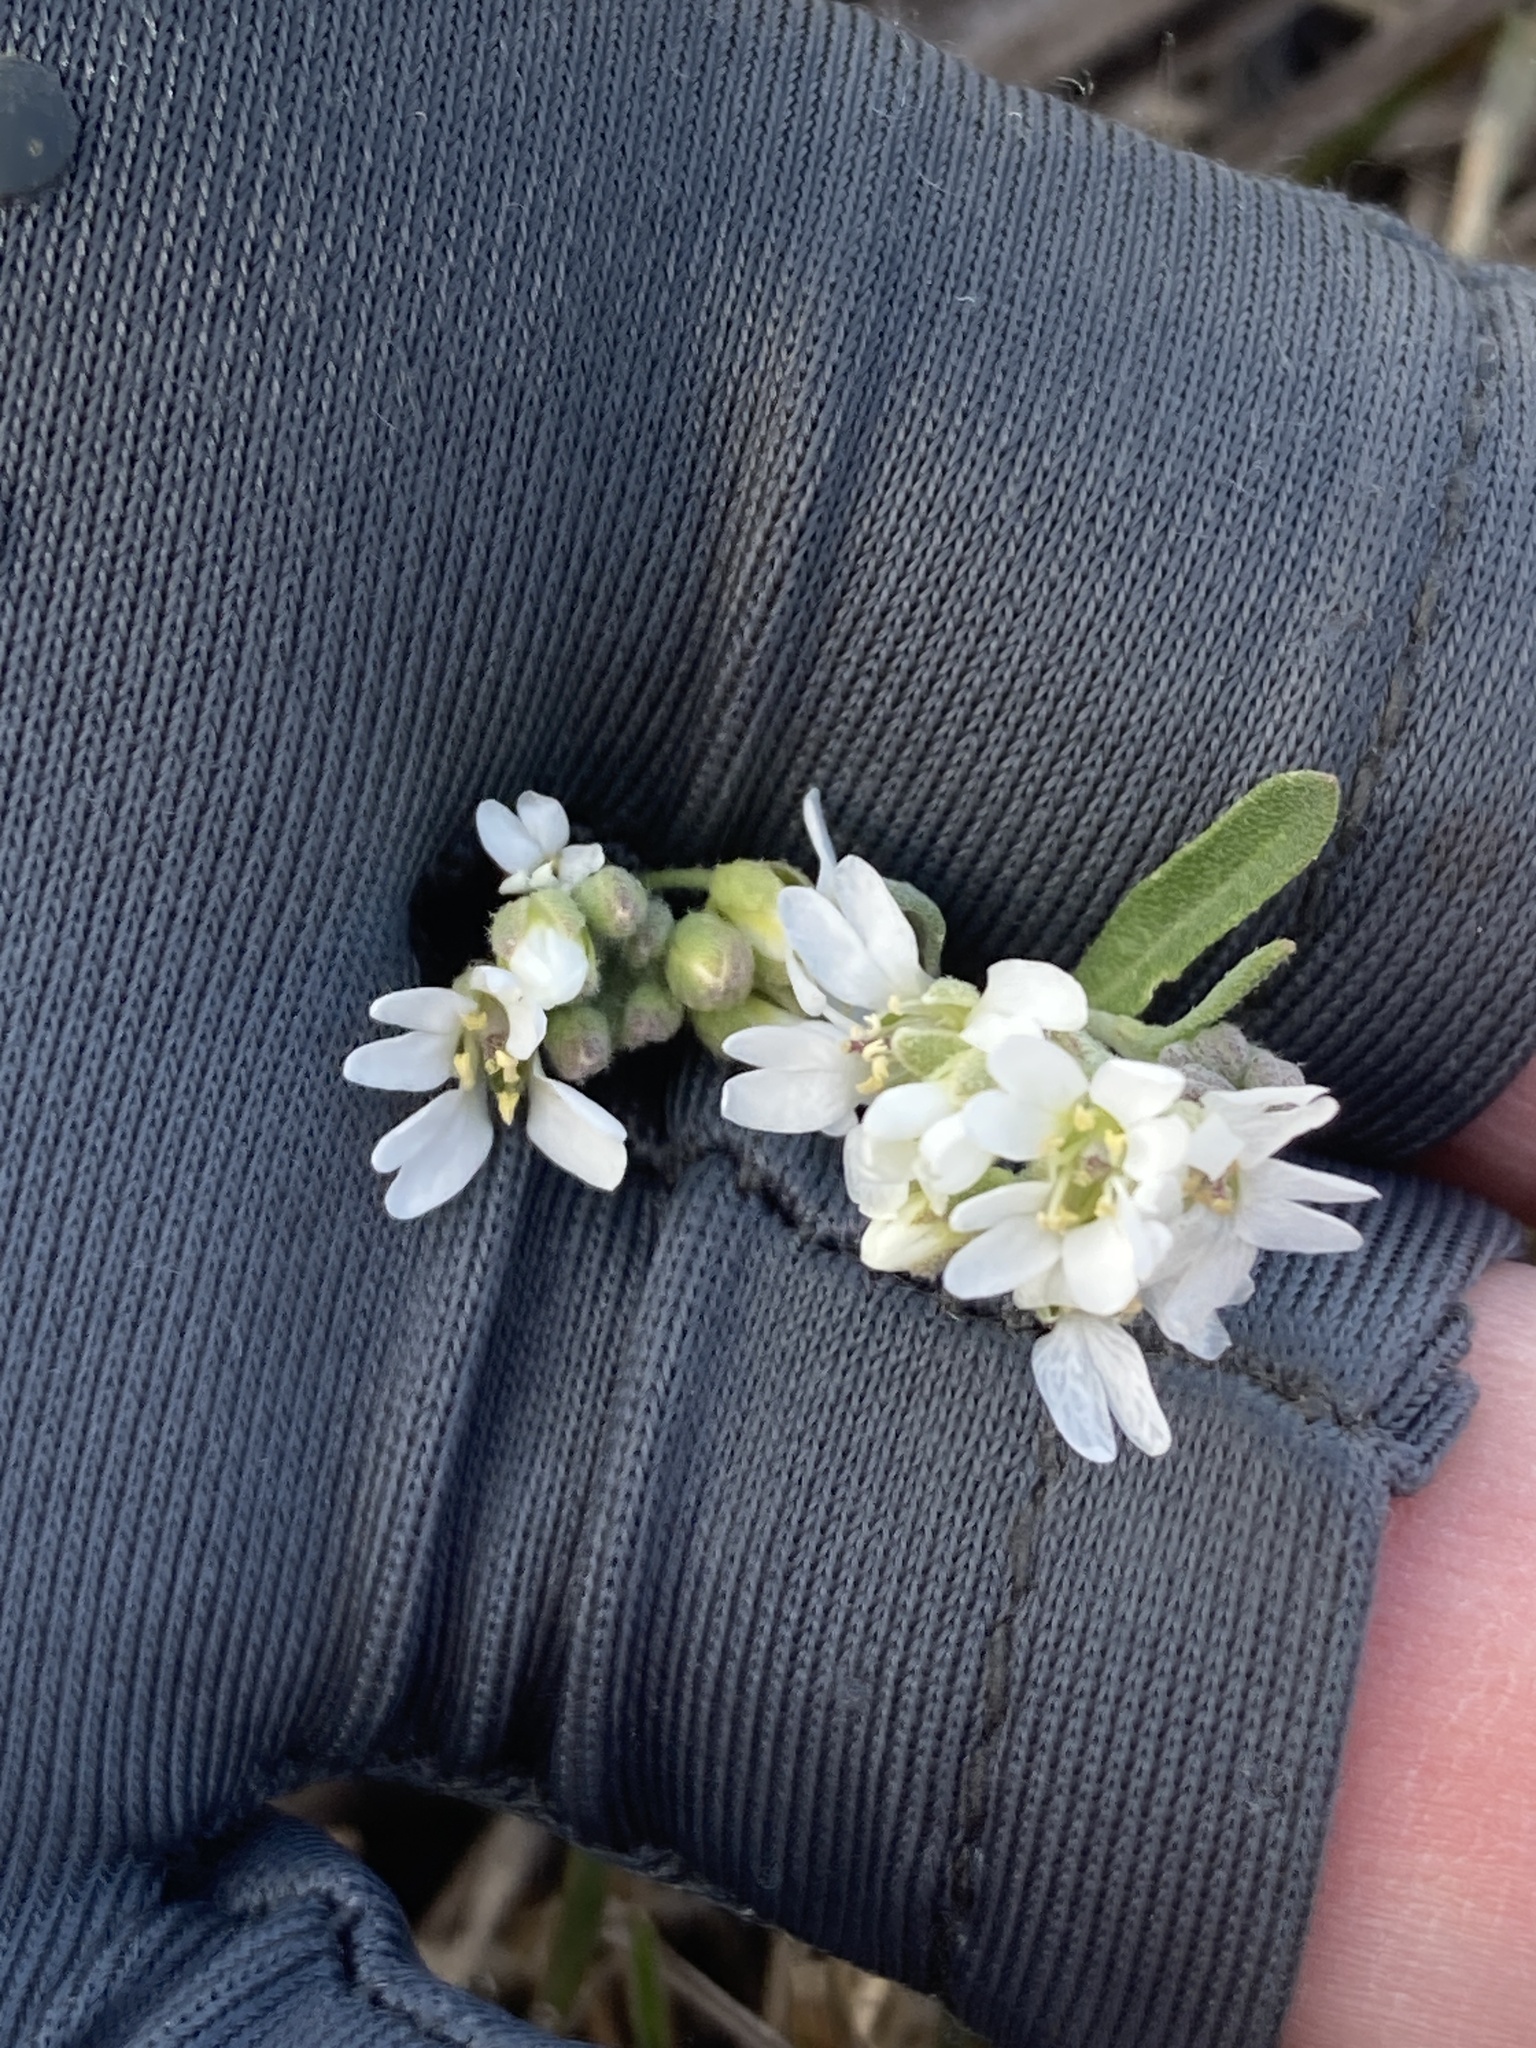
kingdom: Plantae
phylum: Tracheophyta
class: Magnoliopsida
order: Brassicales
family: Brassicaceae
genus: Berteroa
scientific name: Berteroa incana
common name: Hoary alison
